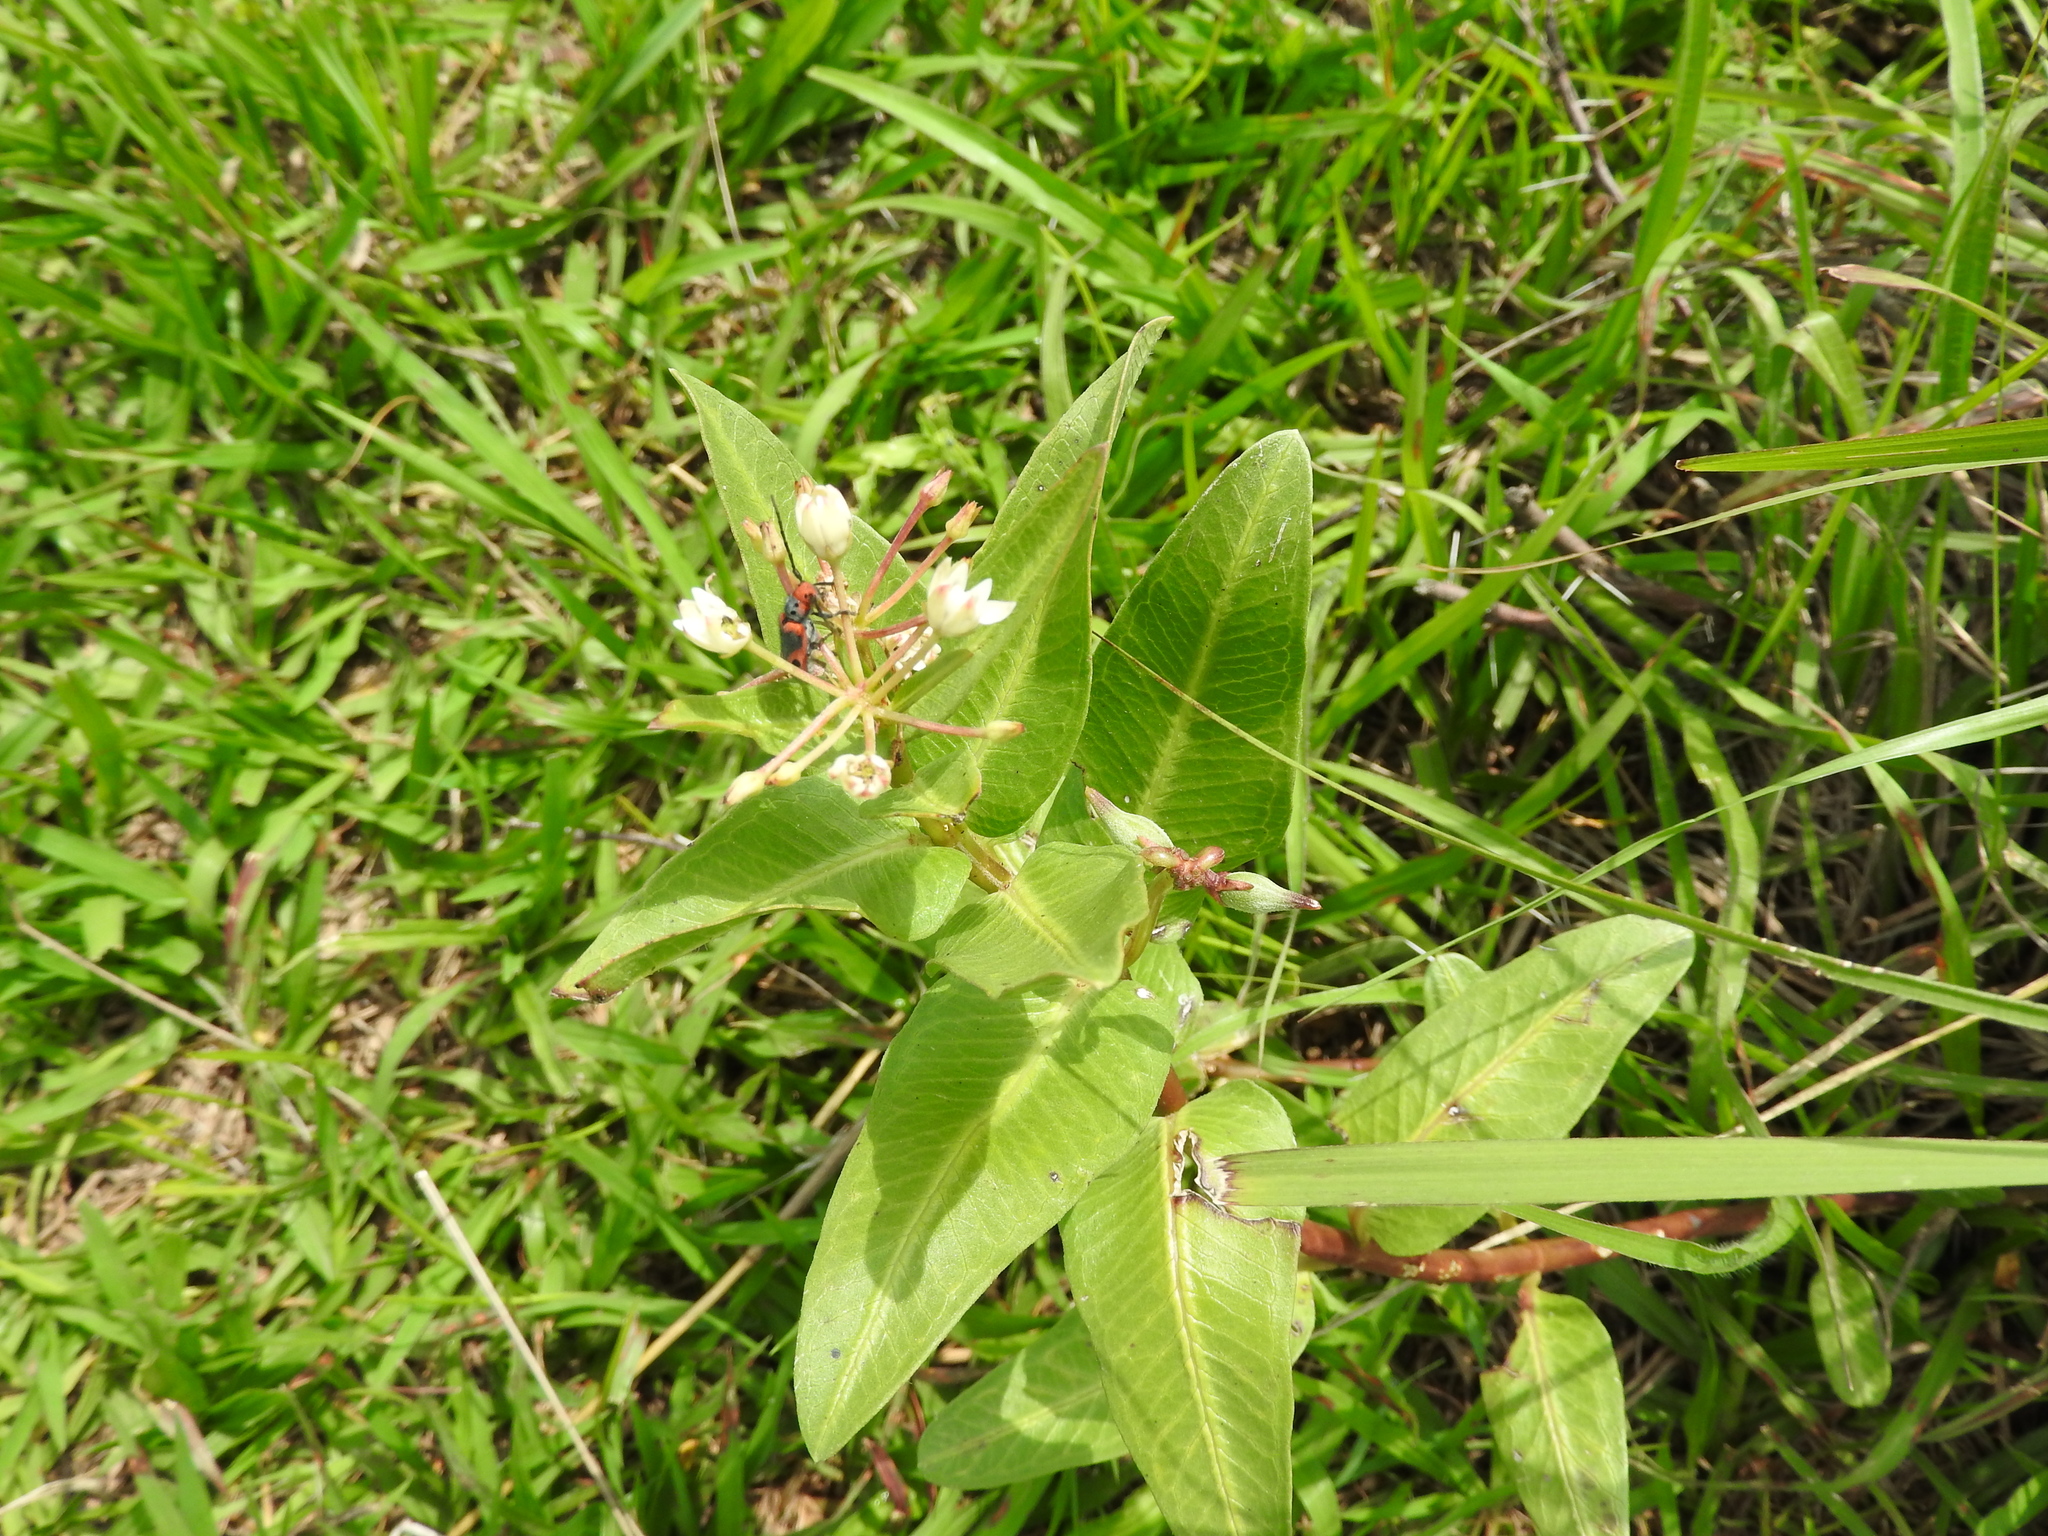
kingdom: Plantae
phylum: Tracheophyta
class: Magnoliopsida
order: Gentianales
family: Apocynaceae
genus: Asclepias
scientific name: Asclepias pratensis
